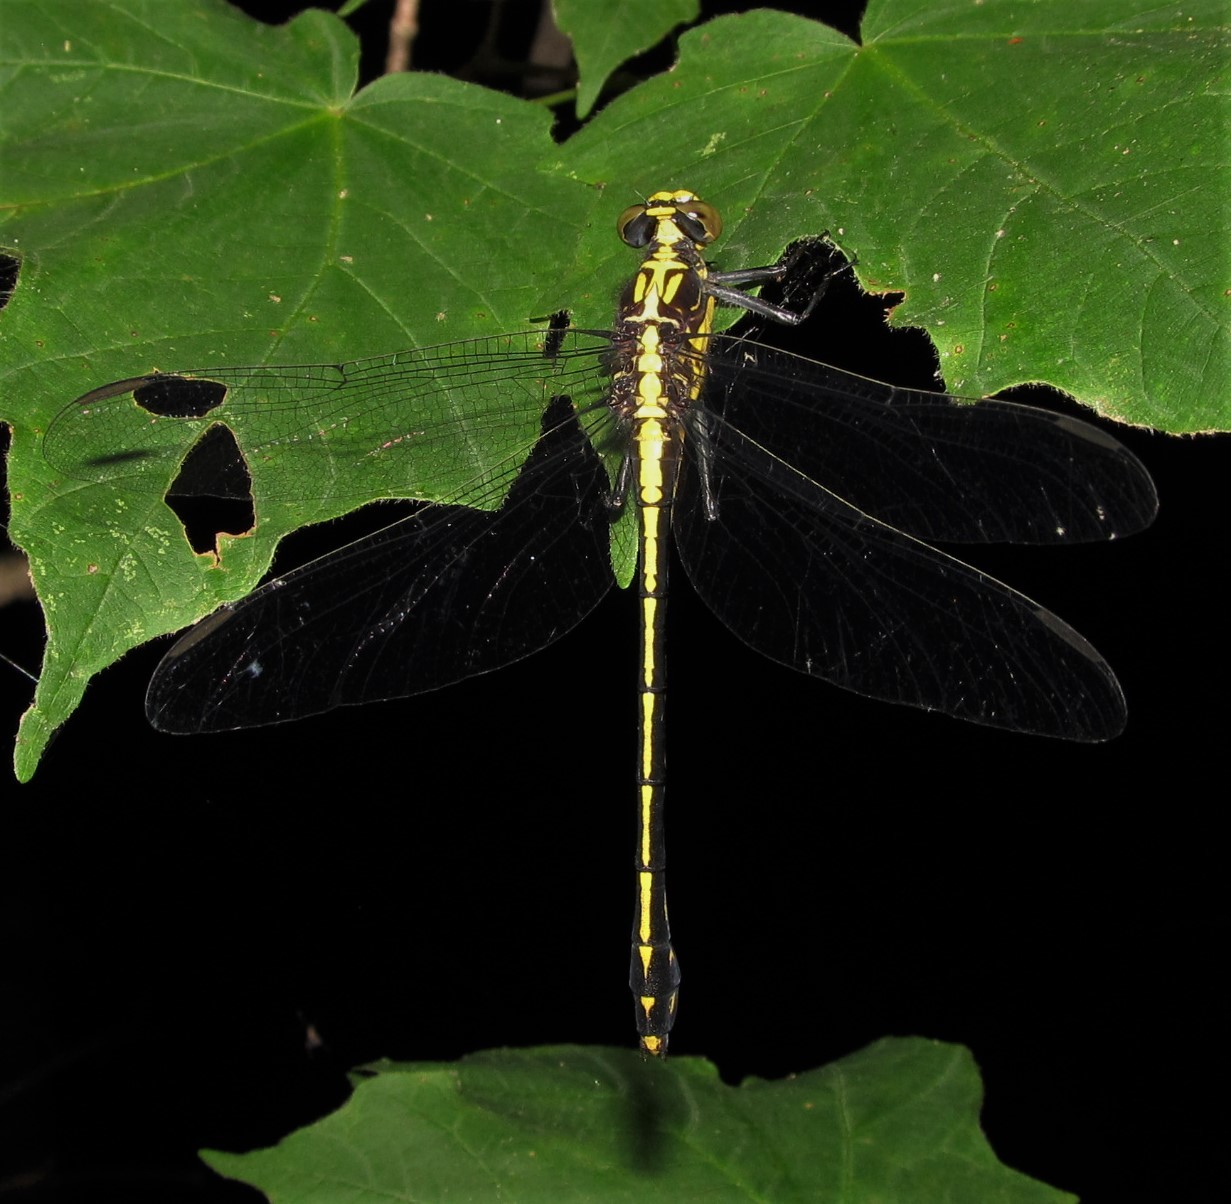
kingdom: Animalia
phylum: Arthropoda
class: Insecta
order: Odonata
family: Gomphidae
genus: Dromogomphus
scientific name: Dromogomphus spinosus
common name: Black-shouldered spinyleg
